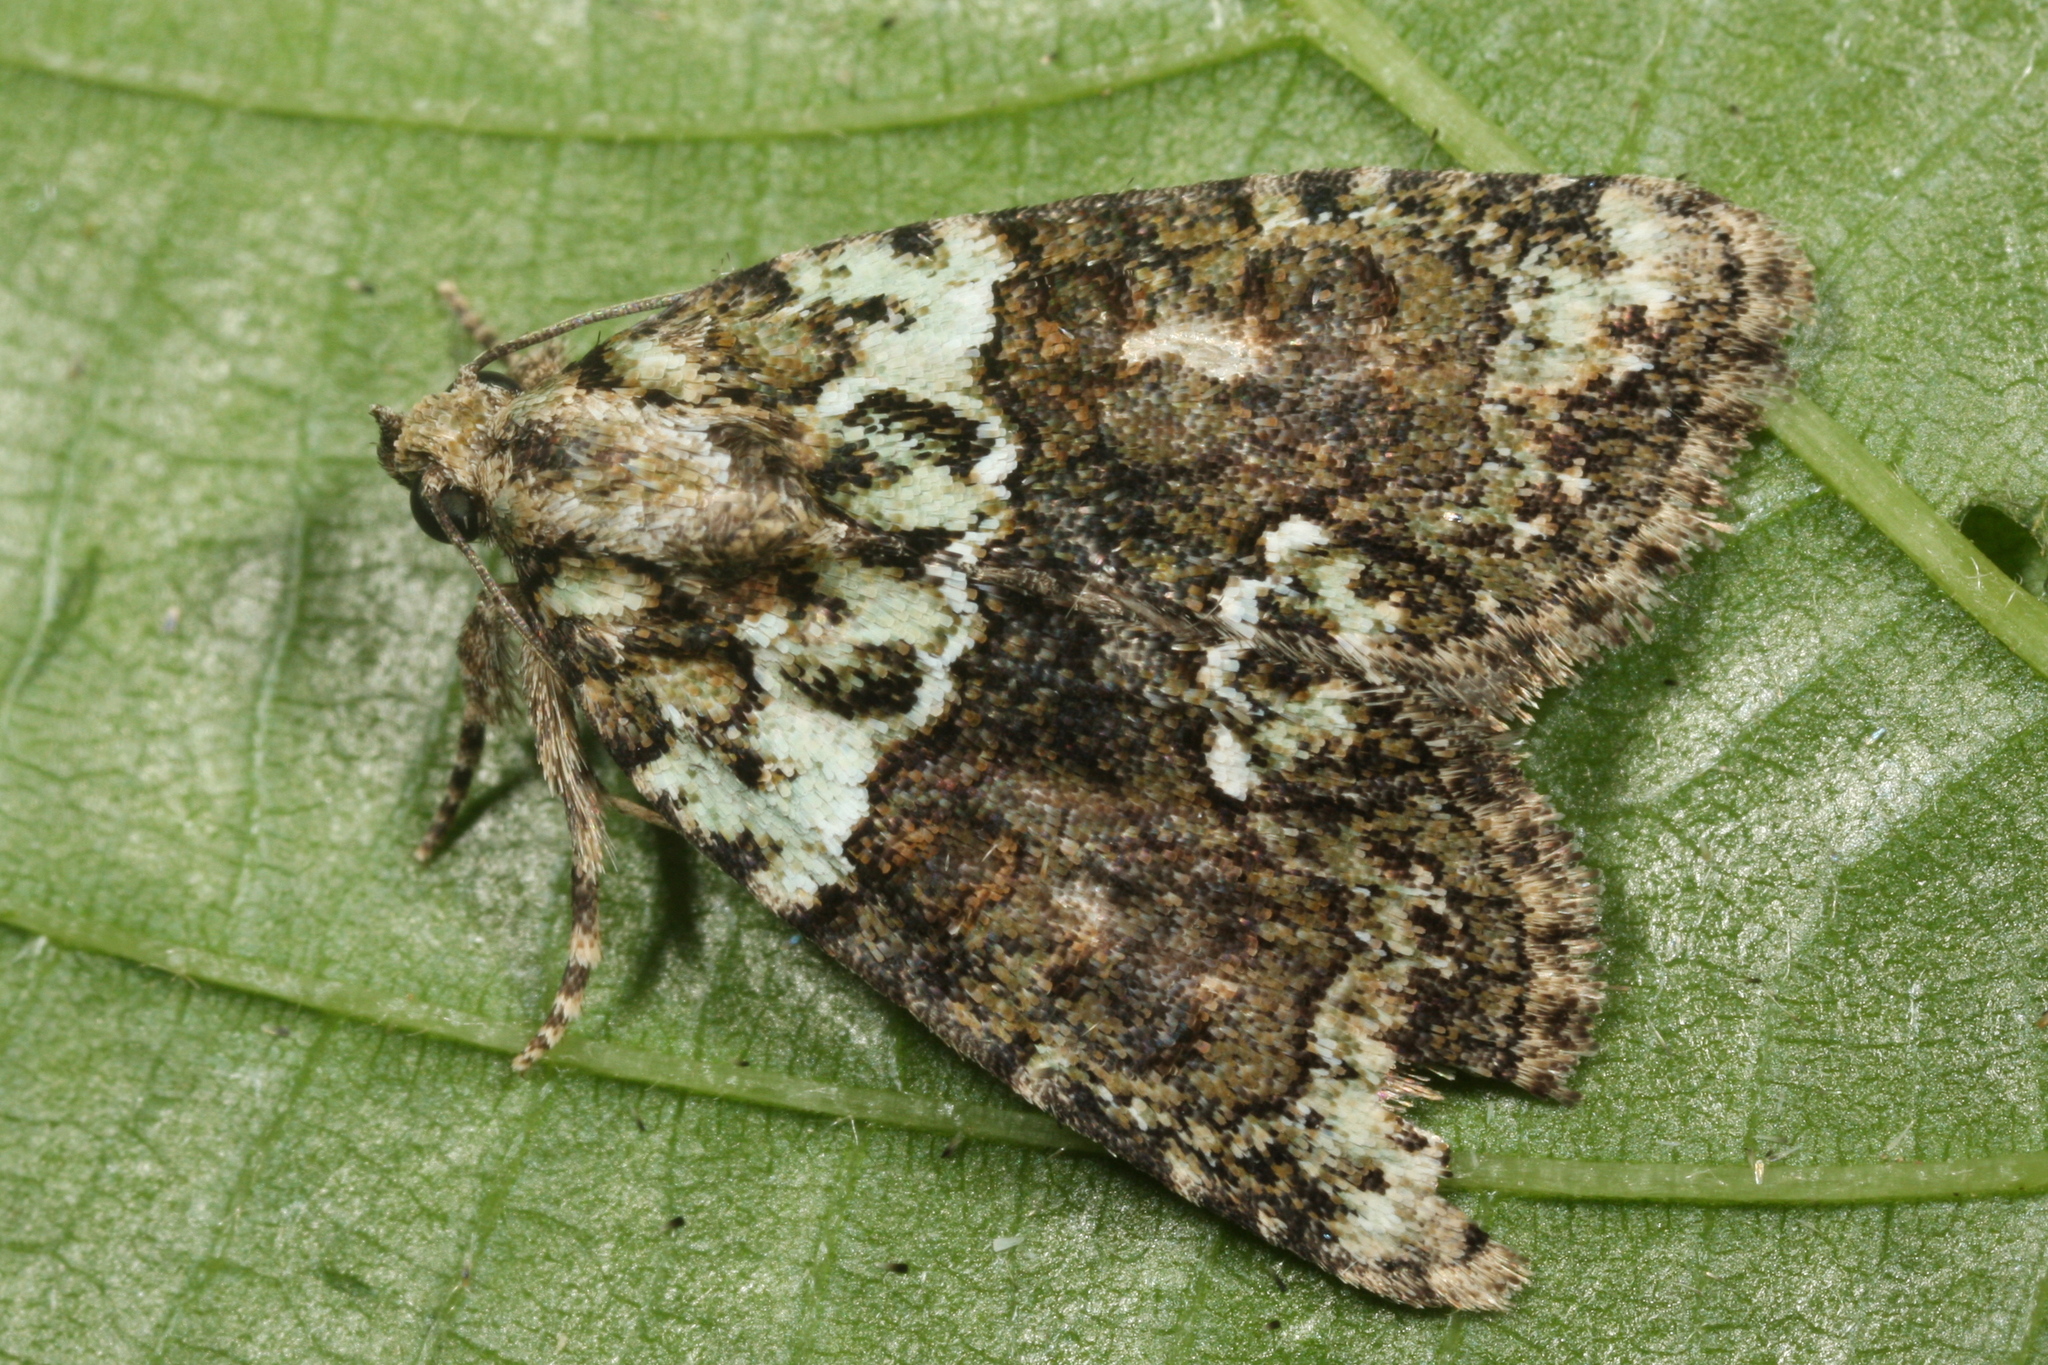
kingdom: Animalia
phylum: Arthropoda
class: Insecta
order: Lepidoptera
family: Noctuidae
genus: Cryphia
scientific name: Cryphia algae
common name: Tree-lichen beauty
